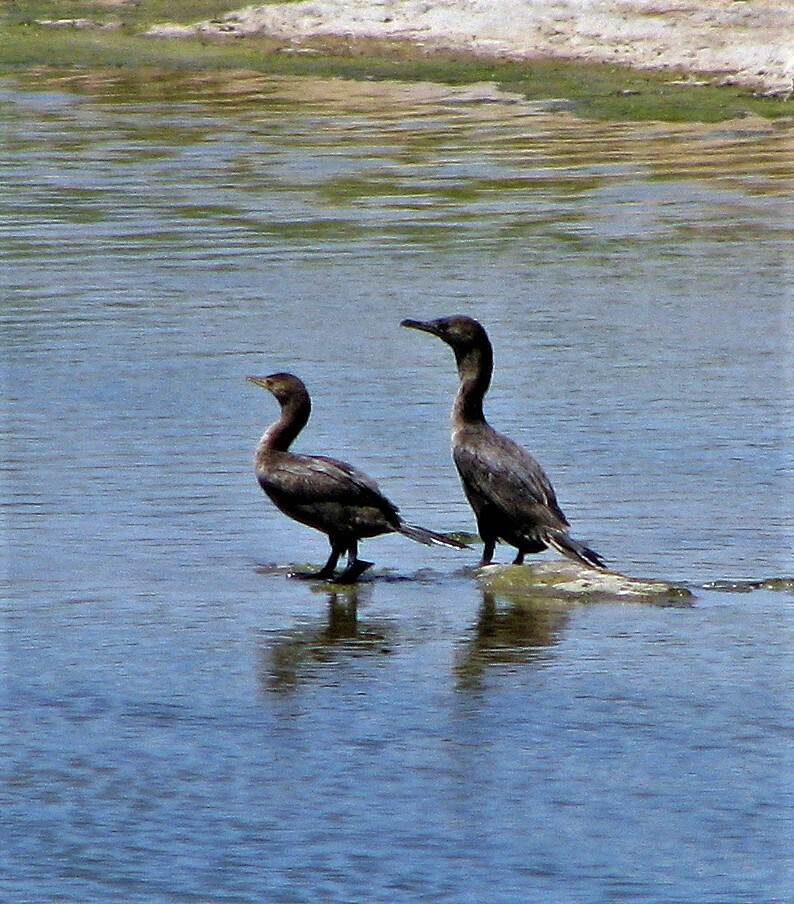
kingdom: Animalia
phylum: Chordata
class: Aves
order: Suliformes
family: Phalacrocoracidae
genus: Phalacrocorax
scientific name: Phalacrocorax brasilianus
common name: Neotropic cormorant
